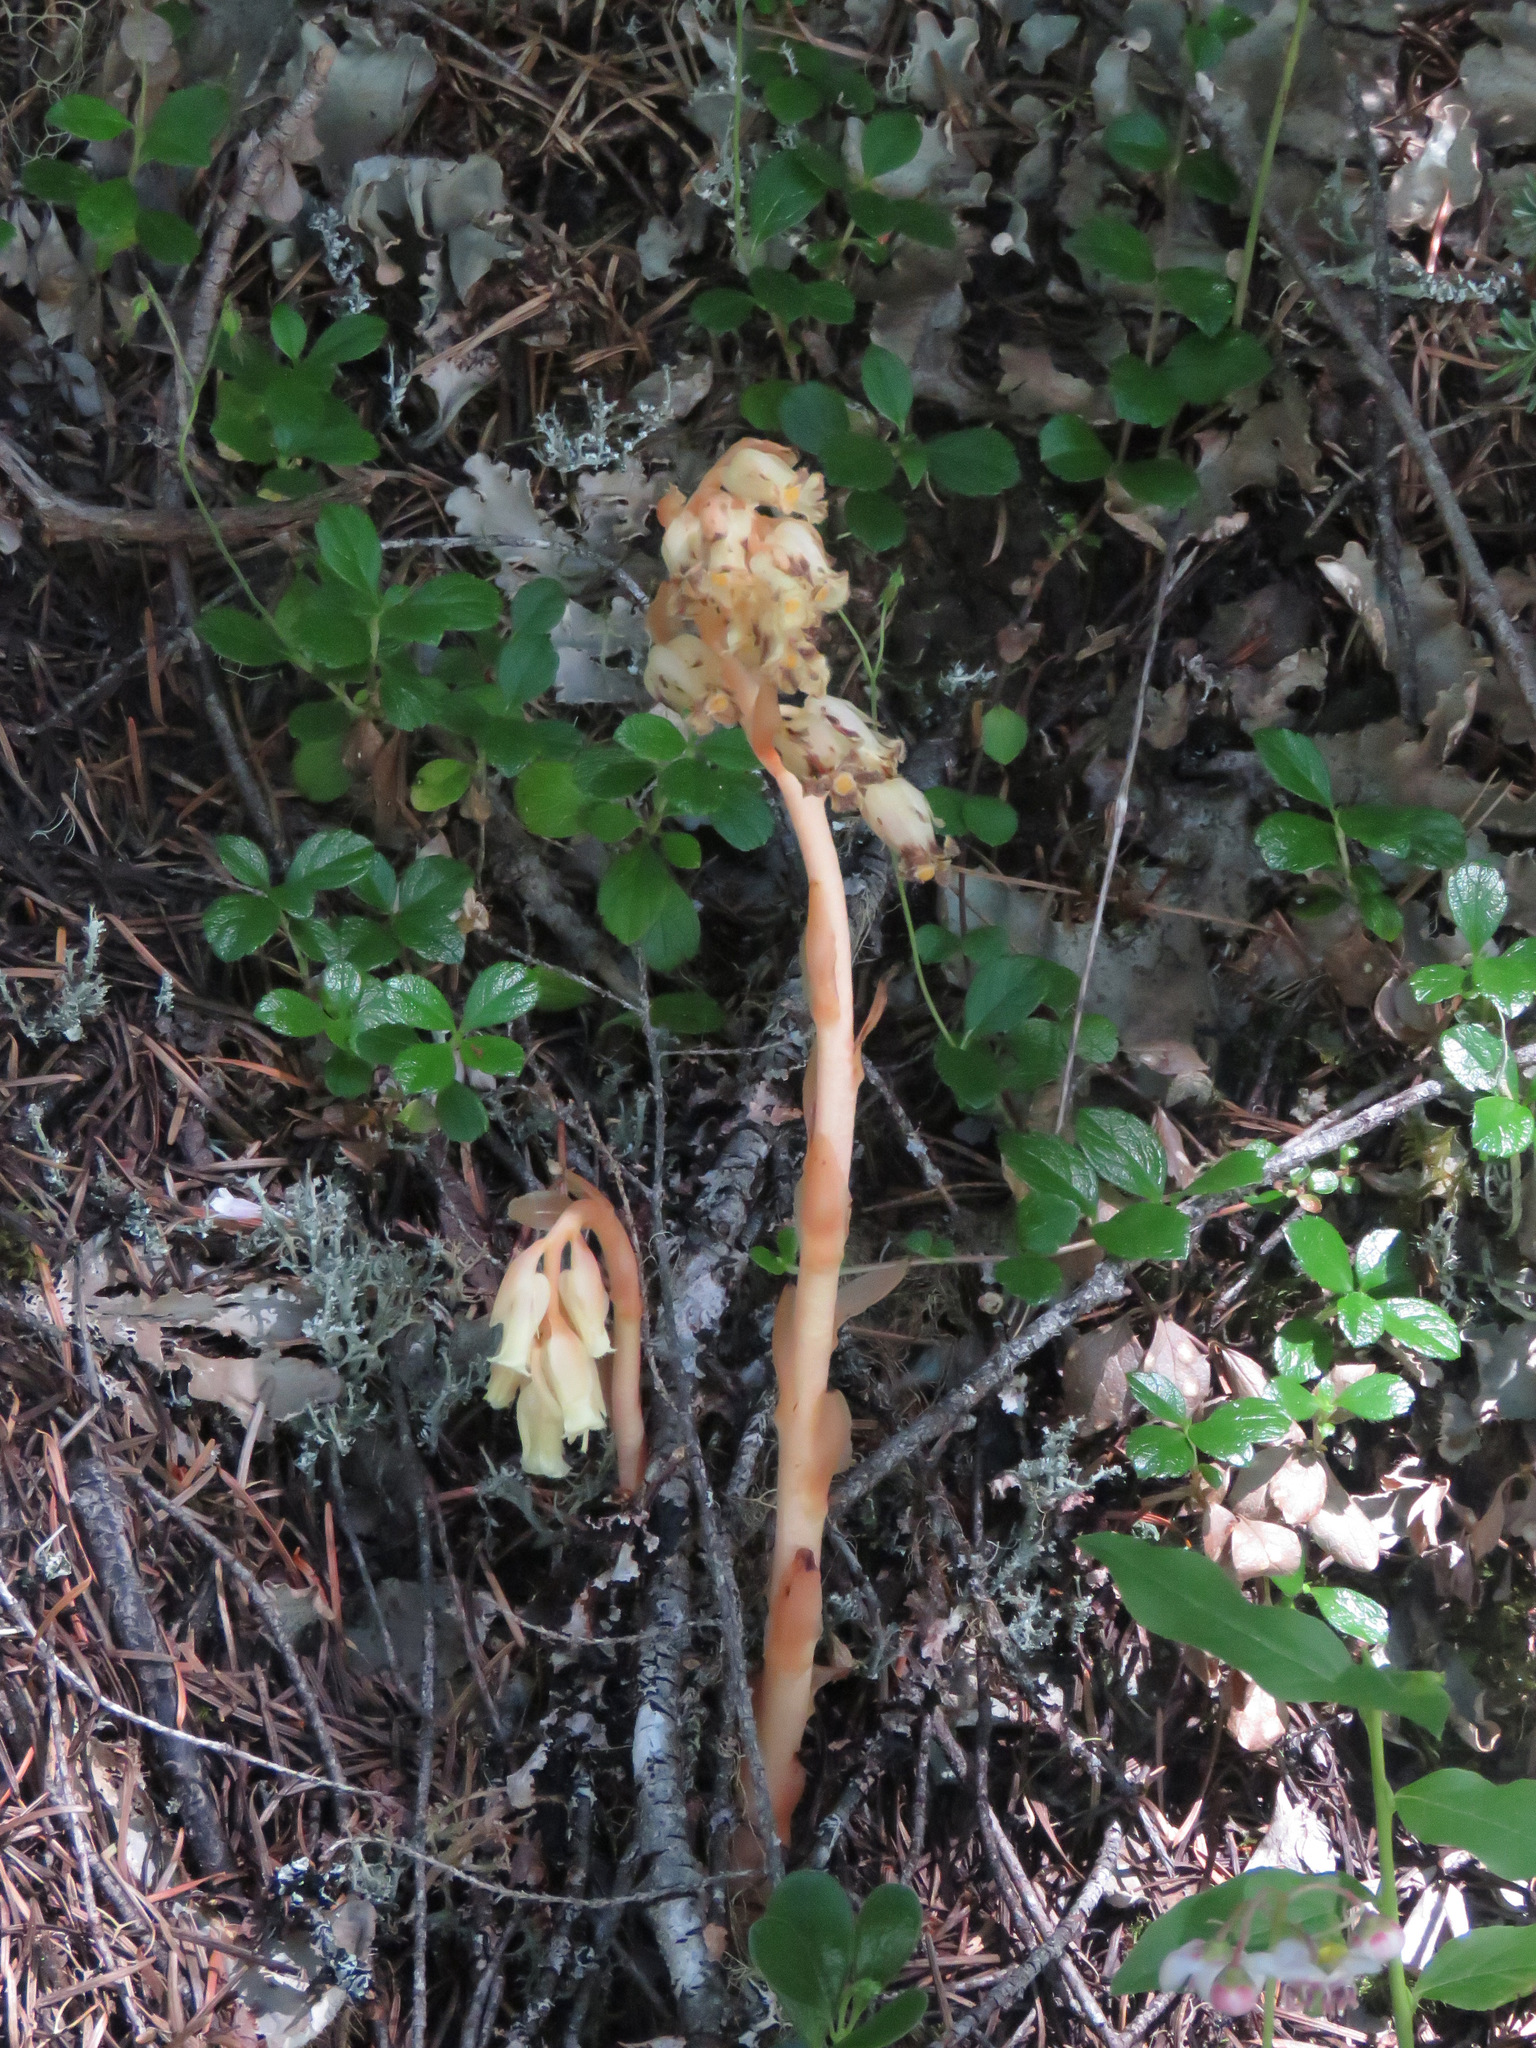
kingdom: Plantae
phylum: Tracheophyta
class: Magnoliopsida
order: Ericales
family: Ericaceae
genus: Hypopitys
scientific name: Hypopitys monotropa
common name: Yellow bird's-nest
